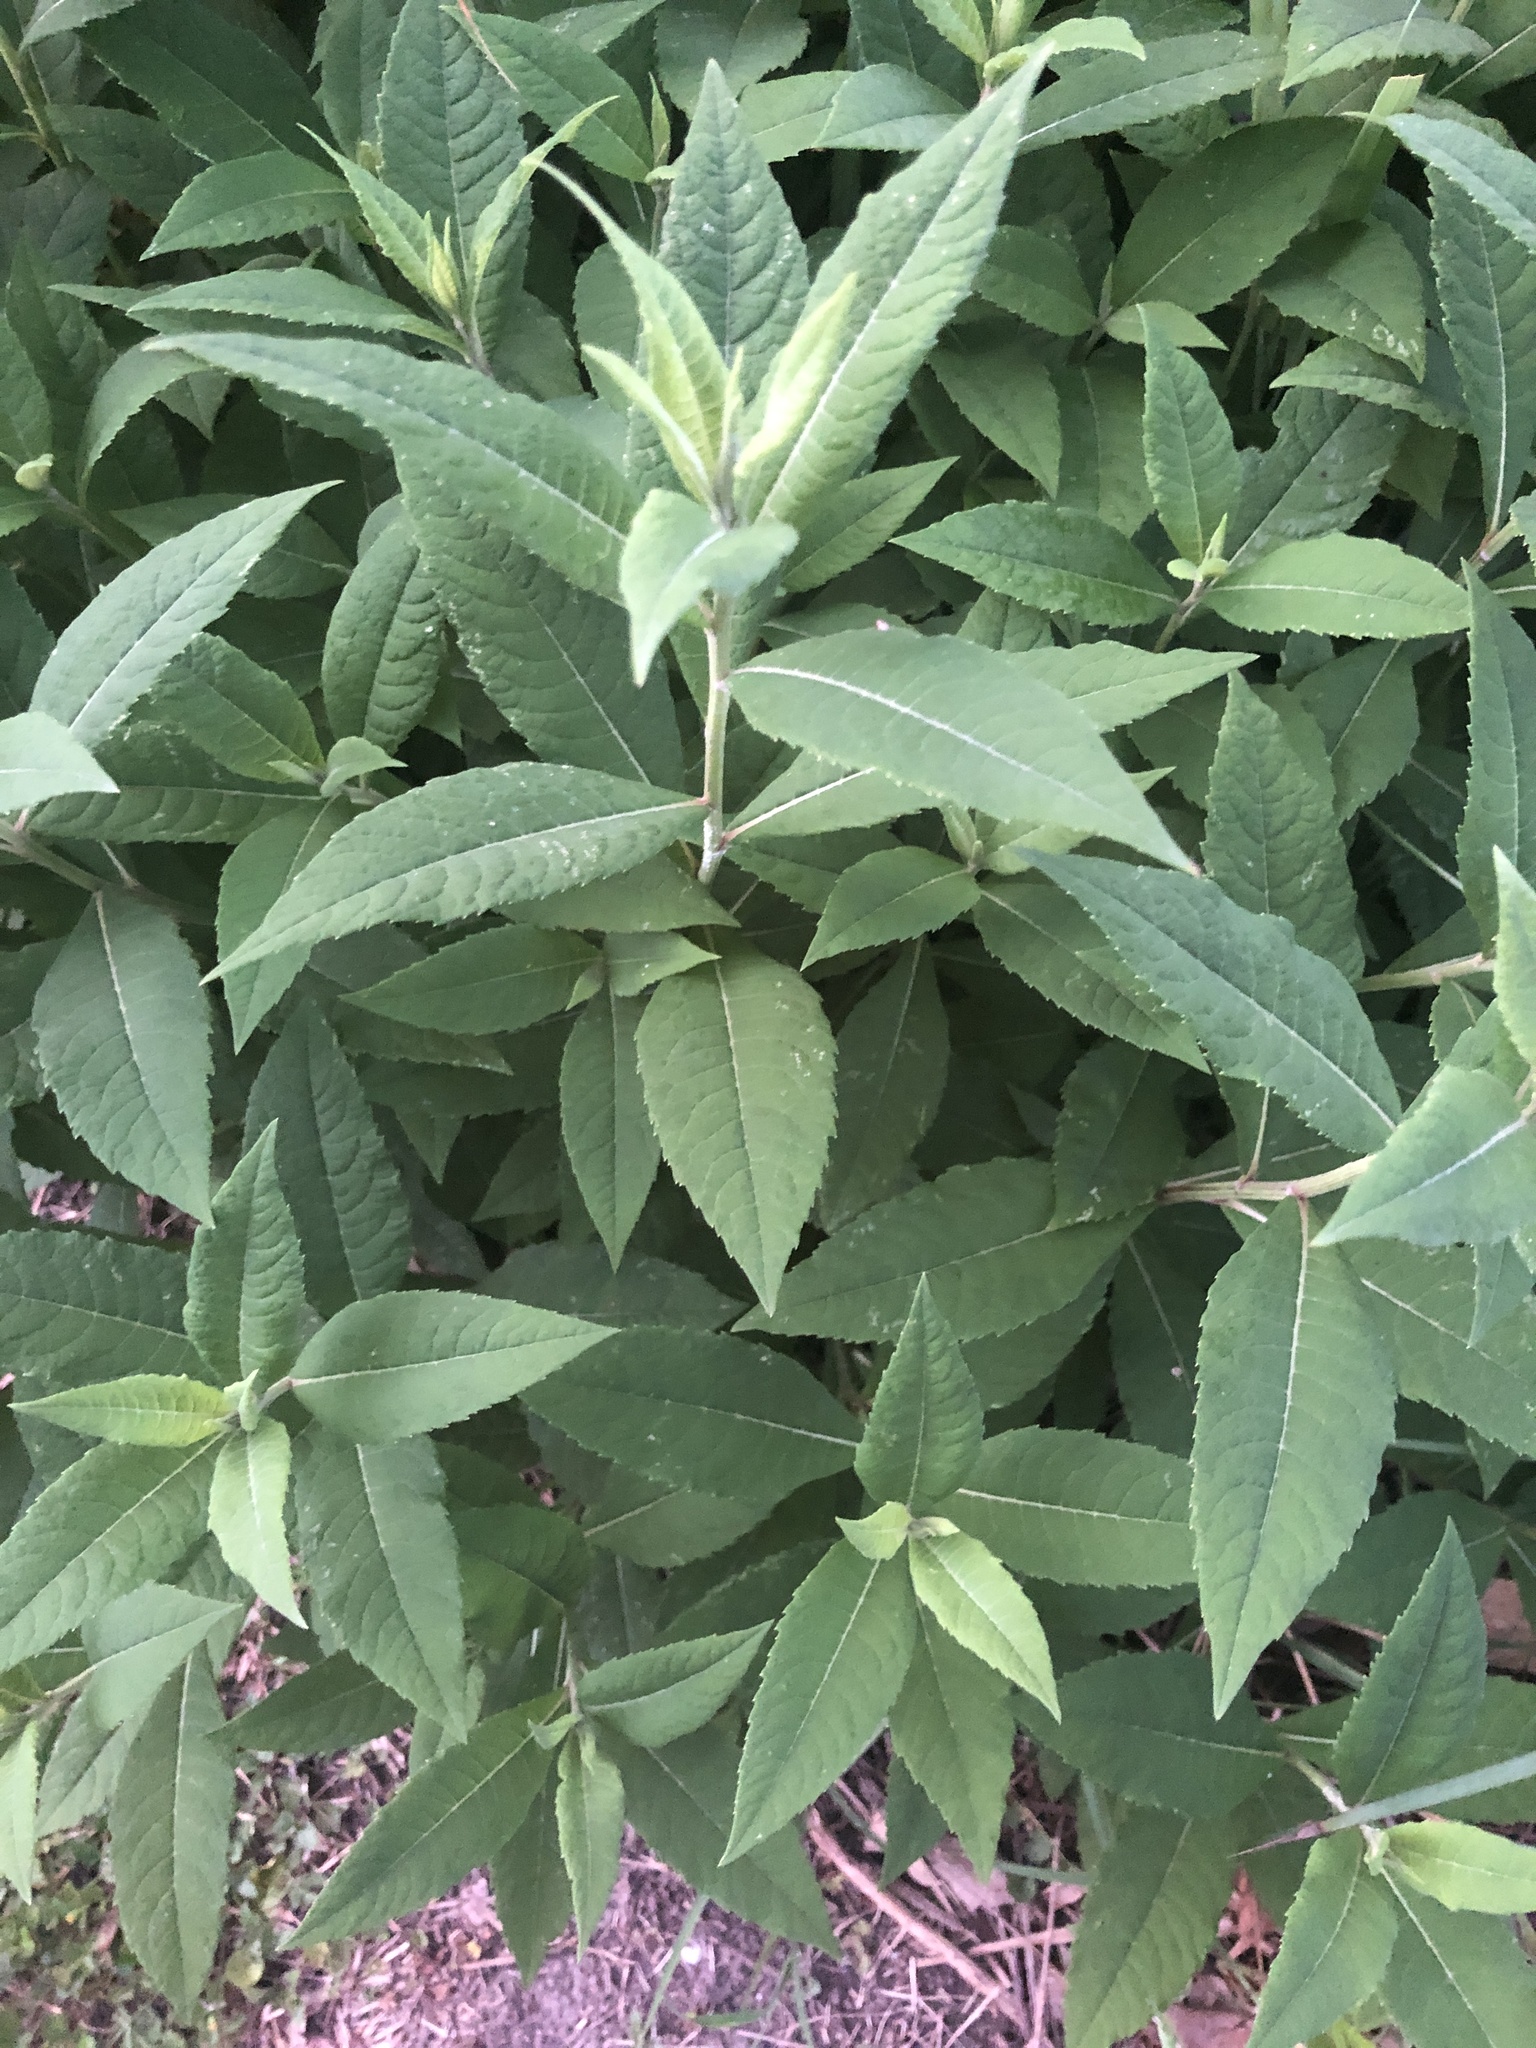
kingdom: Plantae
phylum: Tracheophyta
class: Magnoliopsida
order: Asterales
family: Asteraceae
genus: Vernonia
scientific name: Vernonia missurica
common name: Missouri ironweed
